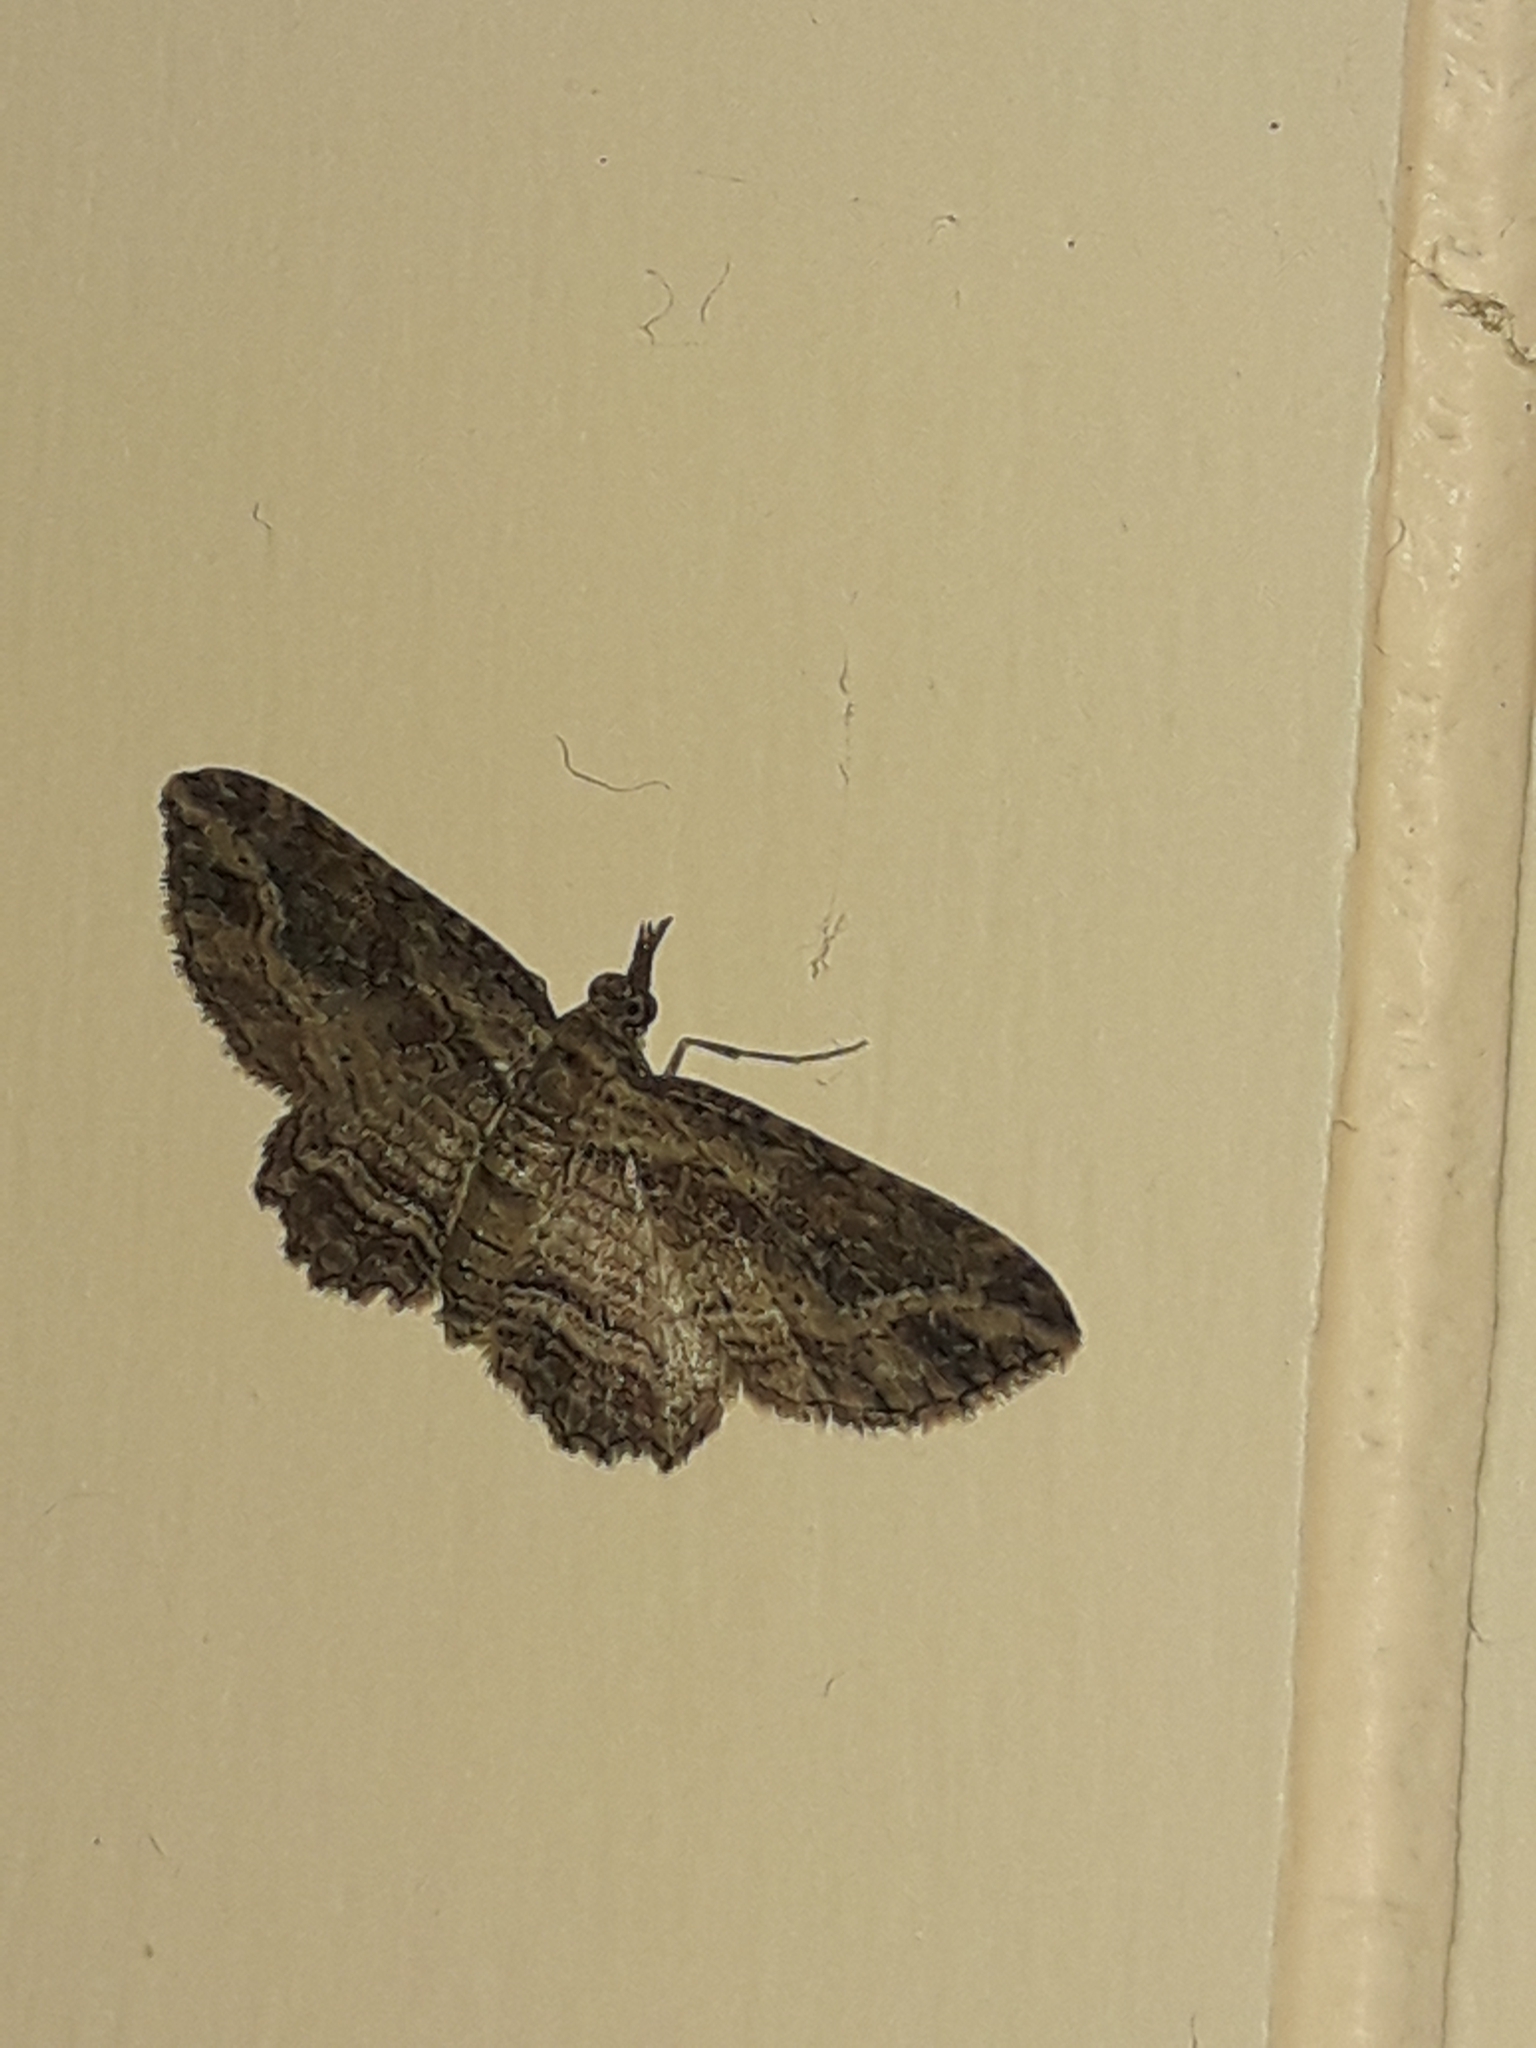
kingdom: Animalia
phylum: Arthropoda
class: Insecta
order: Lepidoptera
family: Geometridae
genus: Chloroclystis
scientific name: Chloroclystis filata
